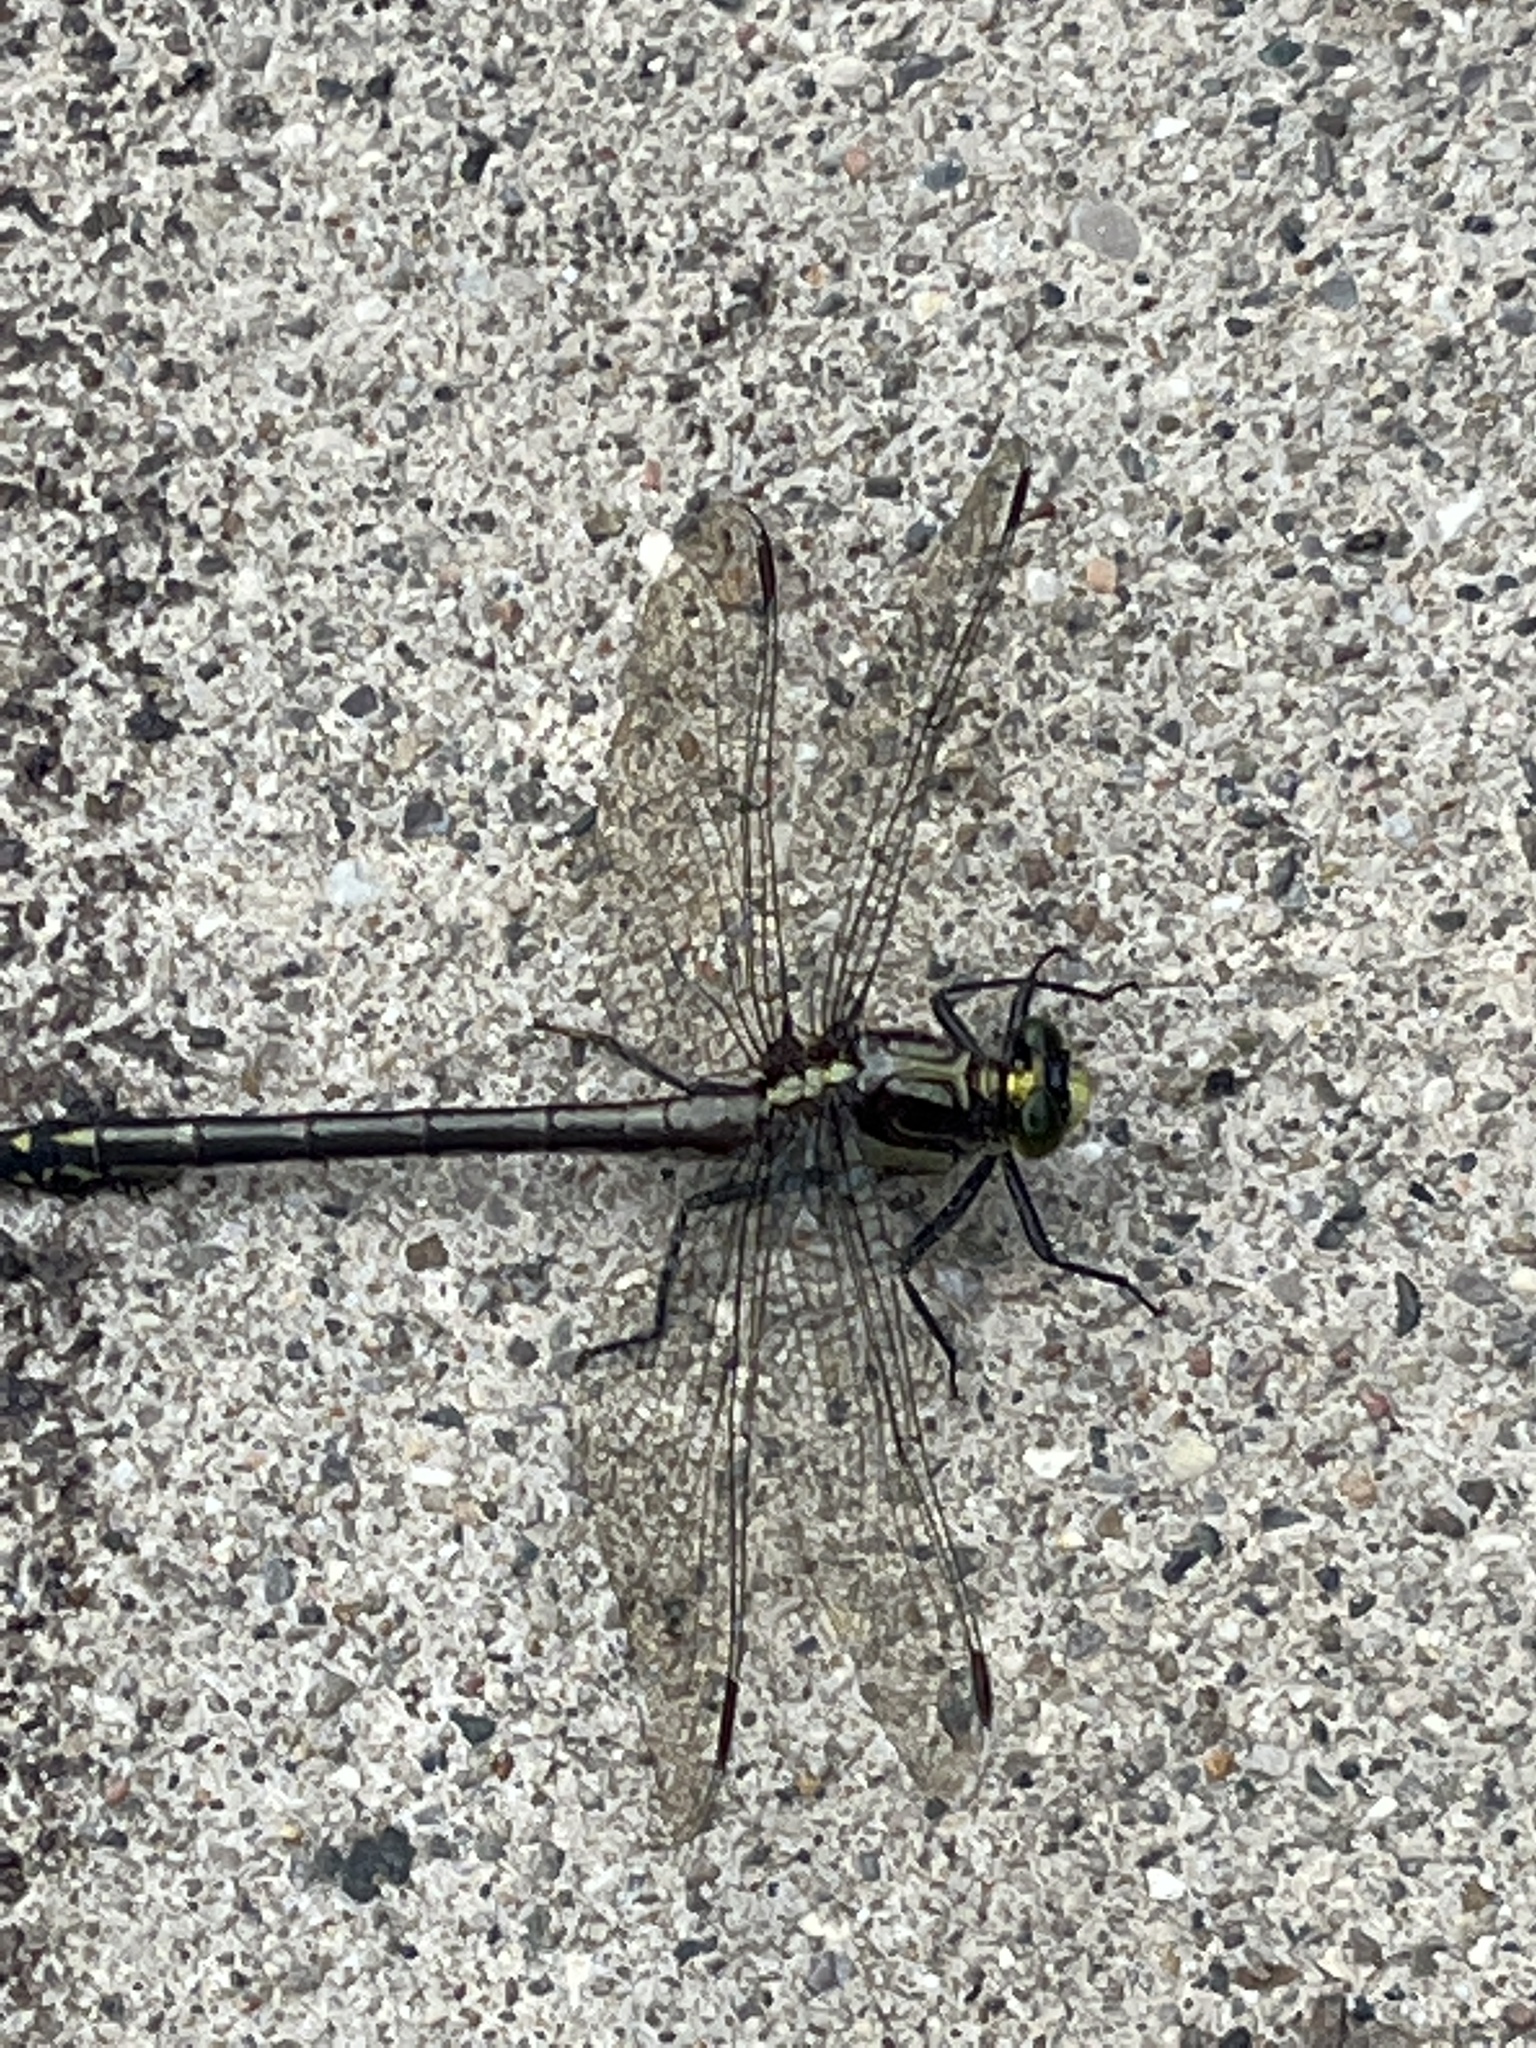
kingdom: Animalia
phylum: Arthropoda
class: Insecta
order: Odonata
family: Gomphidae
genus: Dromogomphus
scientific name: Dromogomphus spinosus
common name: Black-shouldered spinyleg
